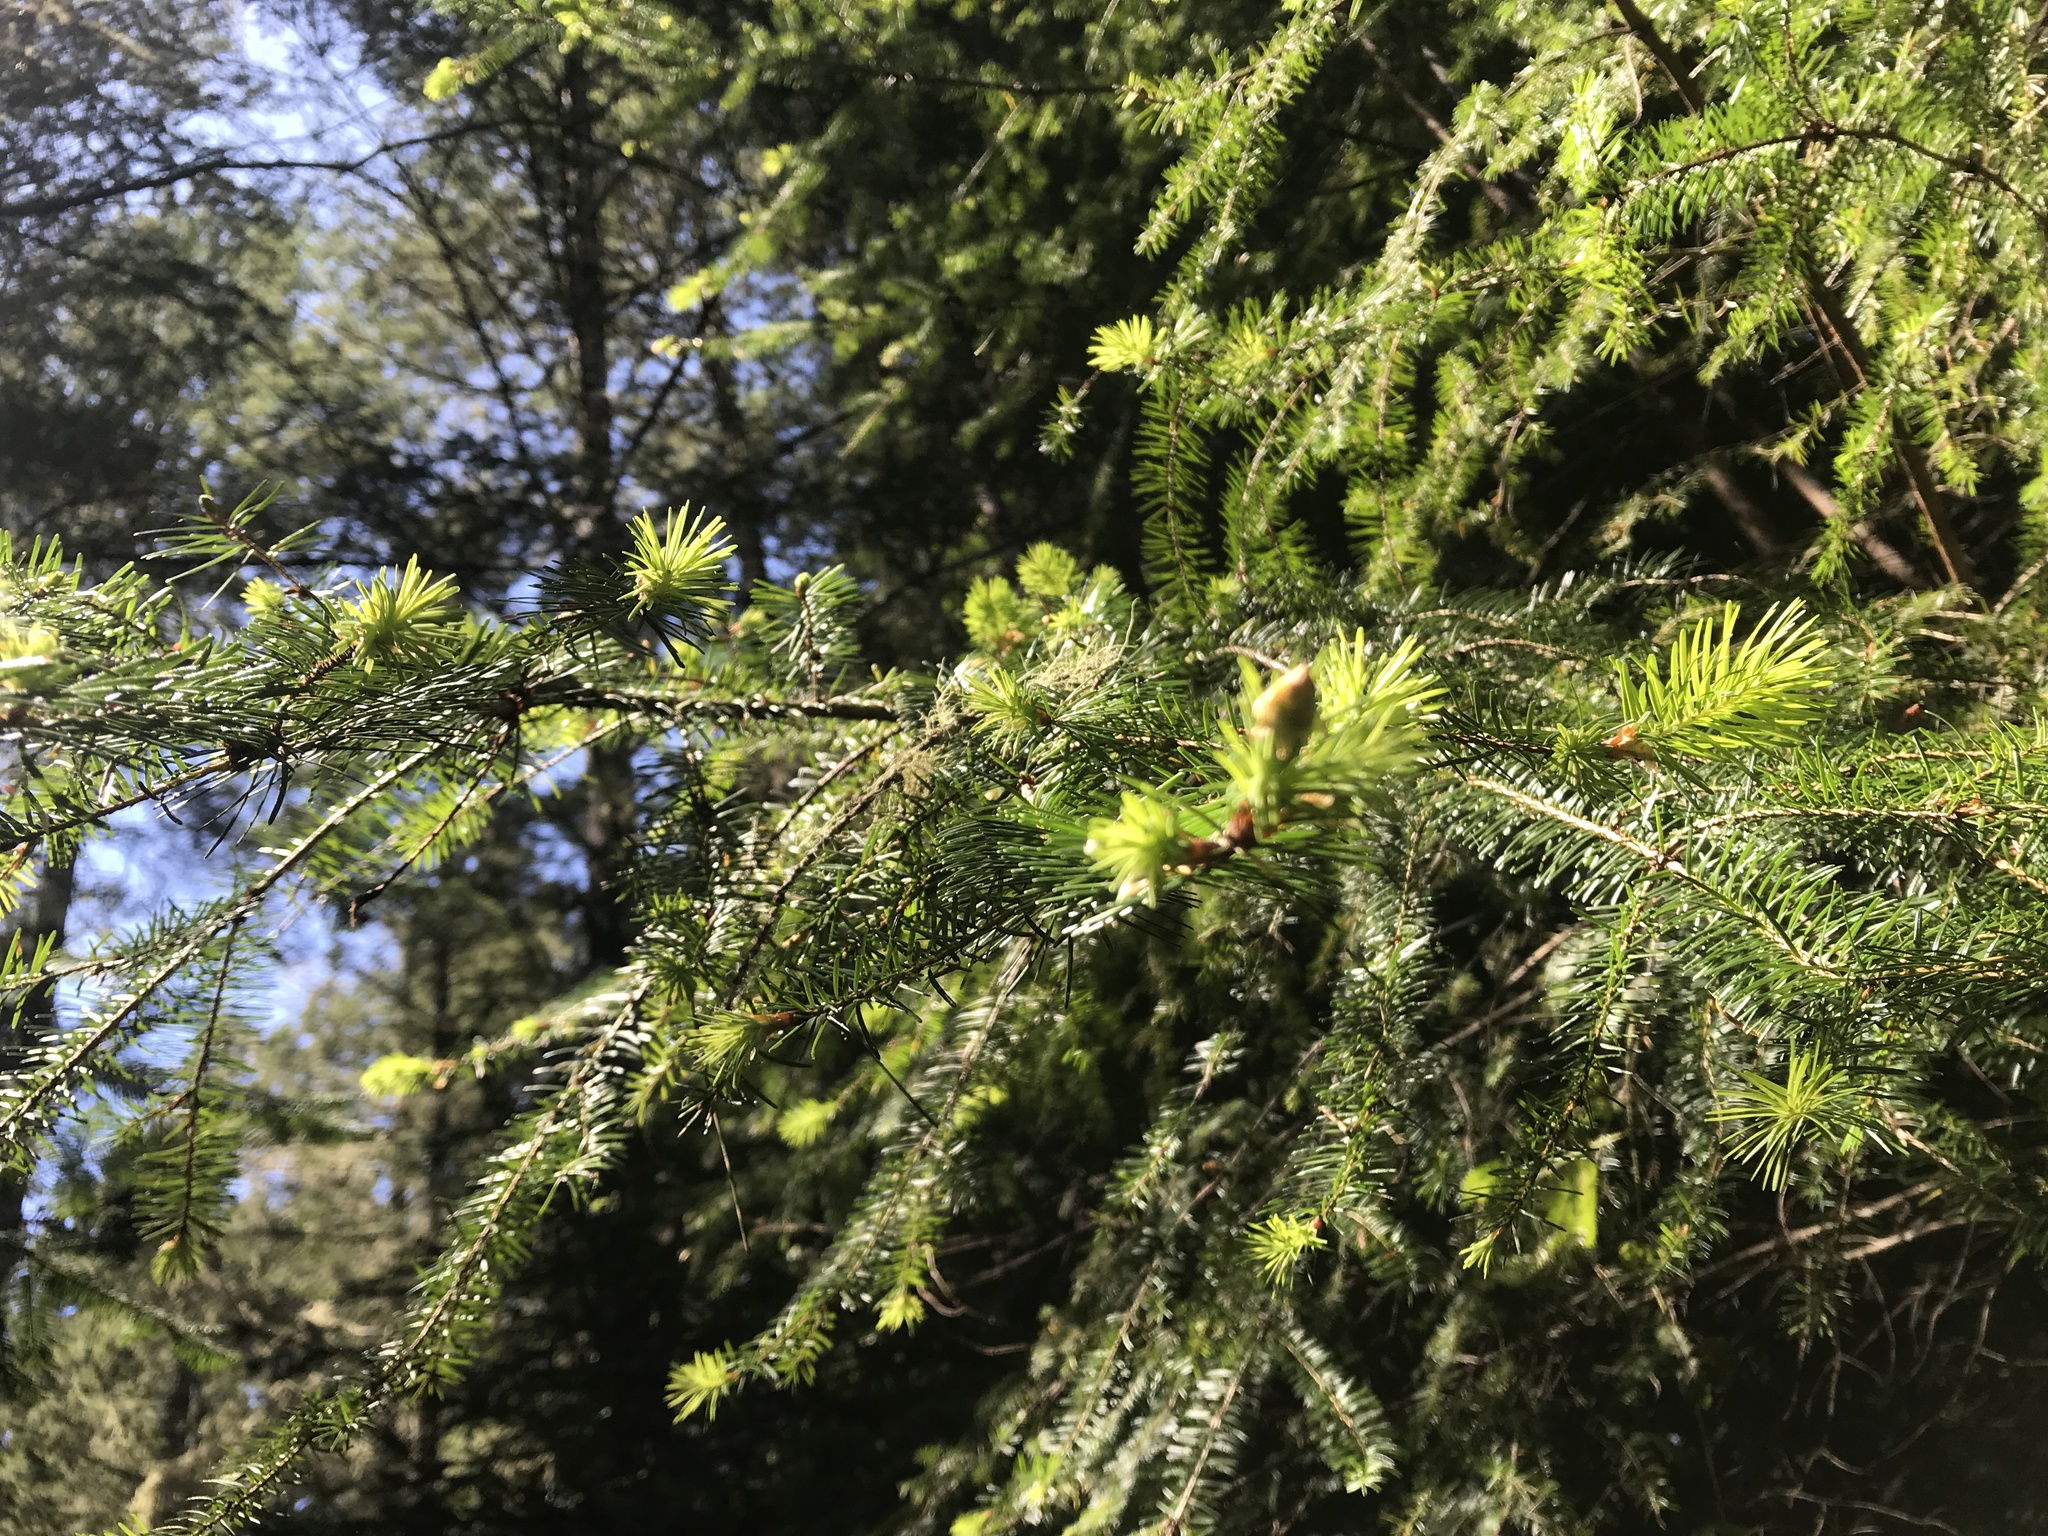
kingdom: Plantae
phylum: Tracheophyta
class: Pinopsida
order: Pinales
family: Pinaceae
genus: Pseudotsuga
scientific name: Pseudotsuga menziesii
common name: Douglas fir
